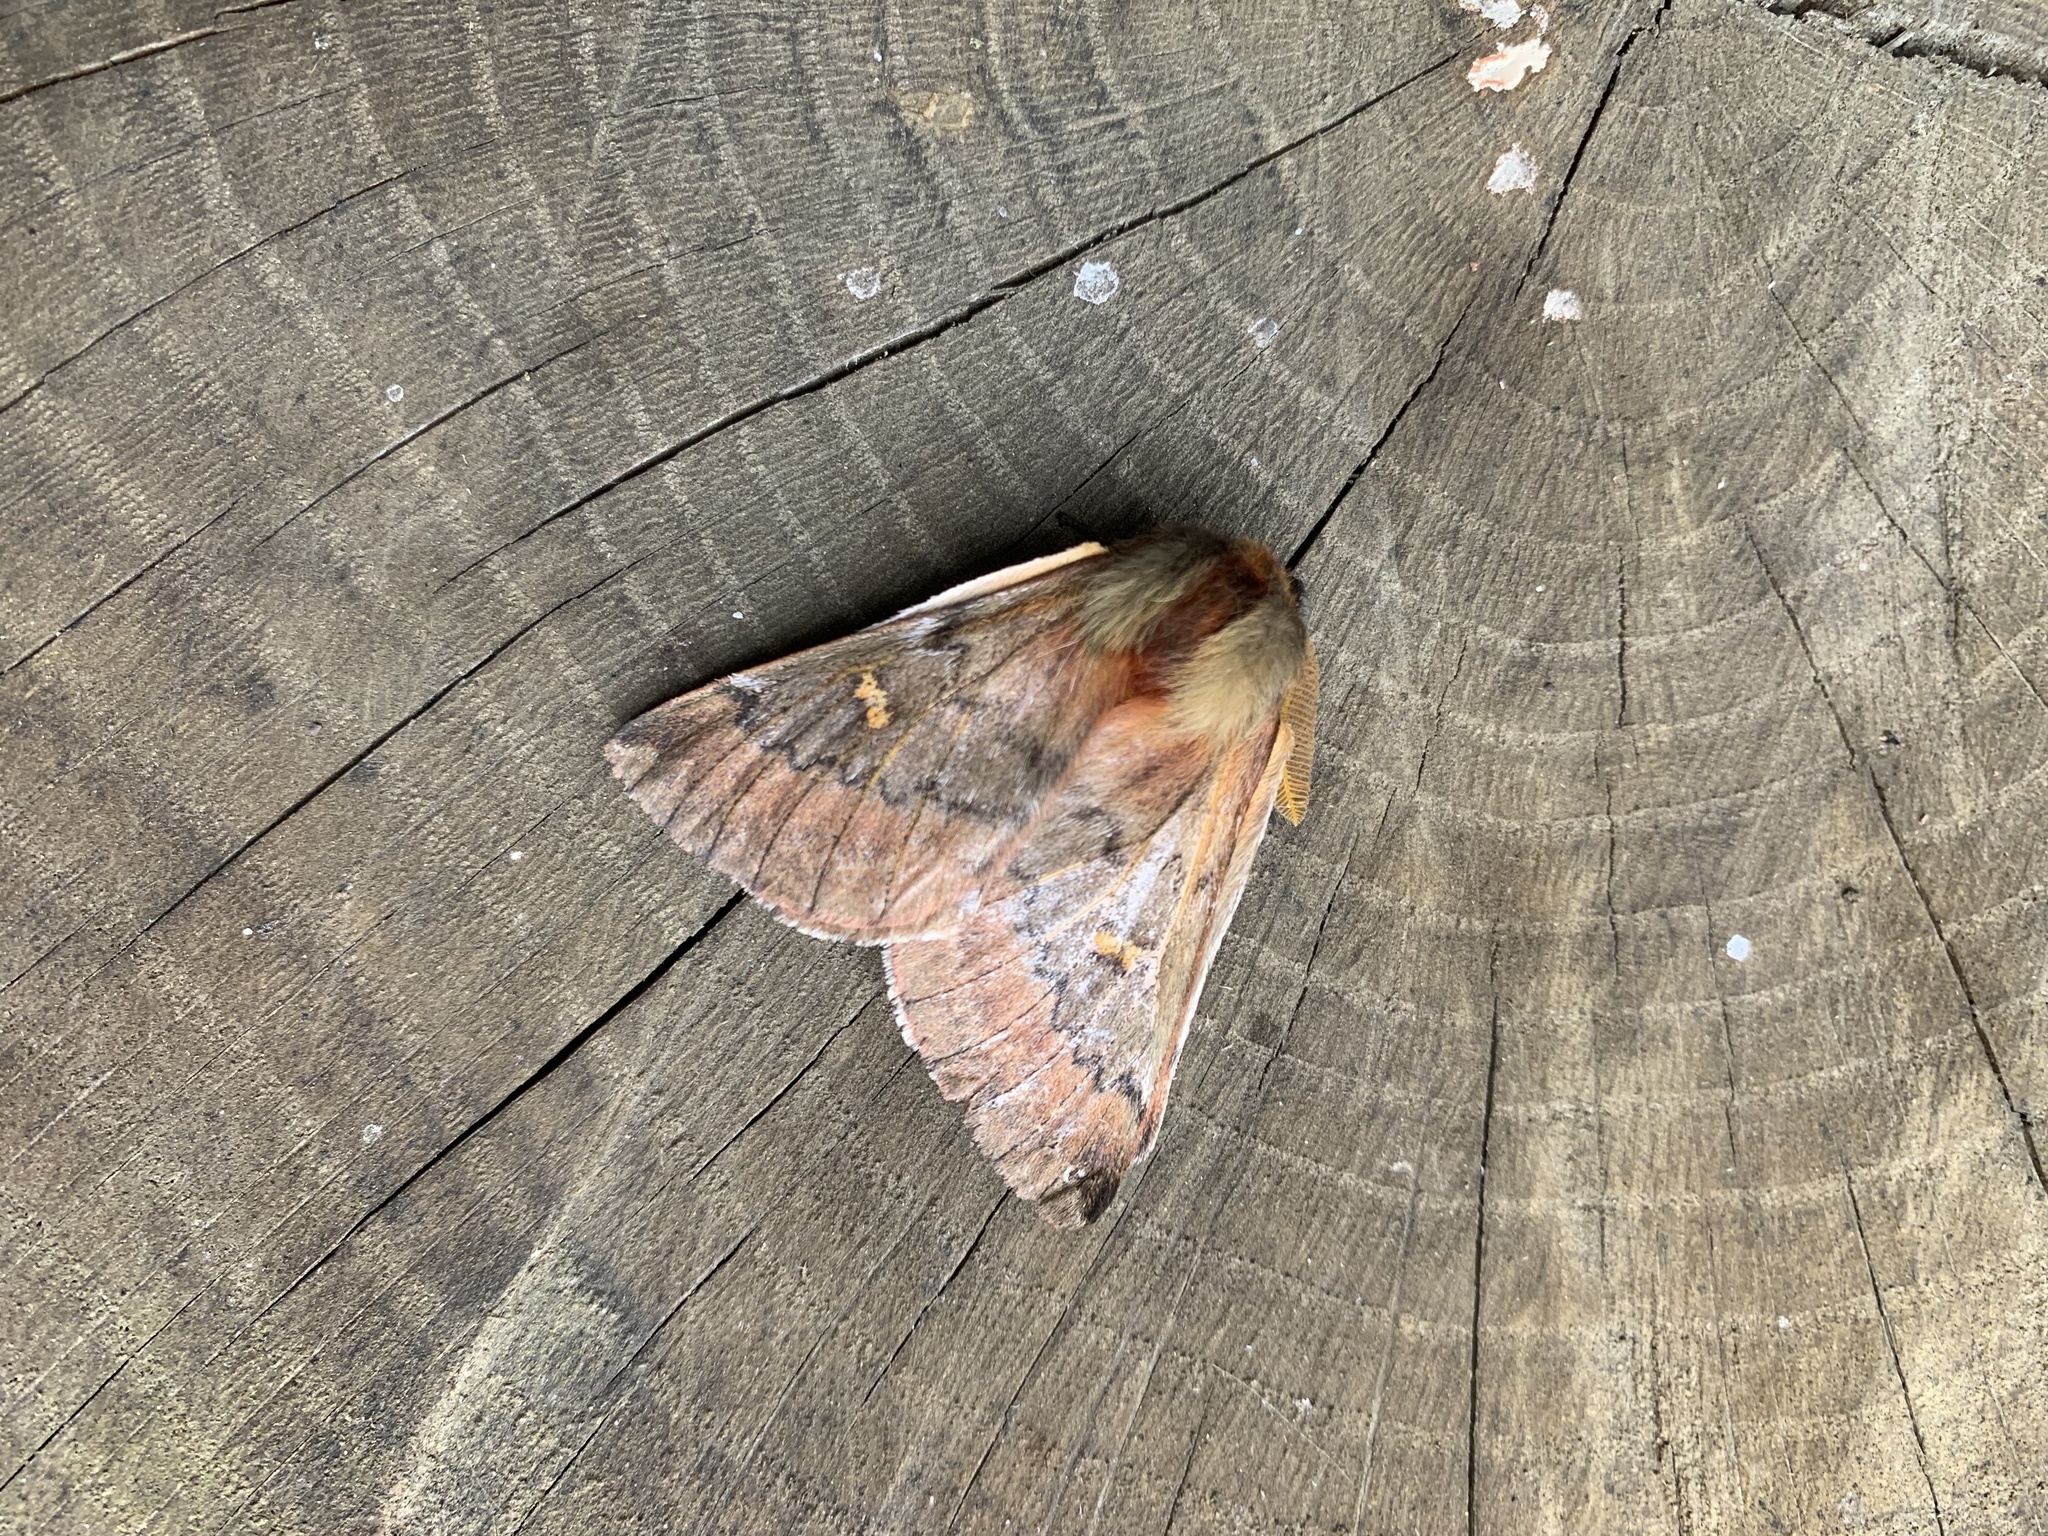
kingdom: Animalia
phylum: Arthropoda
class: Insecta
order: Lepidoptera
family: Saturniidae
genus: Ormiscodes
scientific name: Ormiscodes joiceyi
